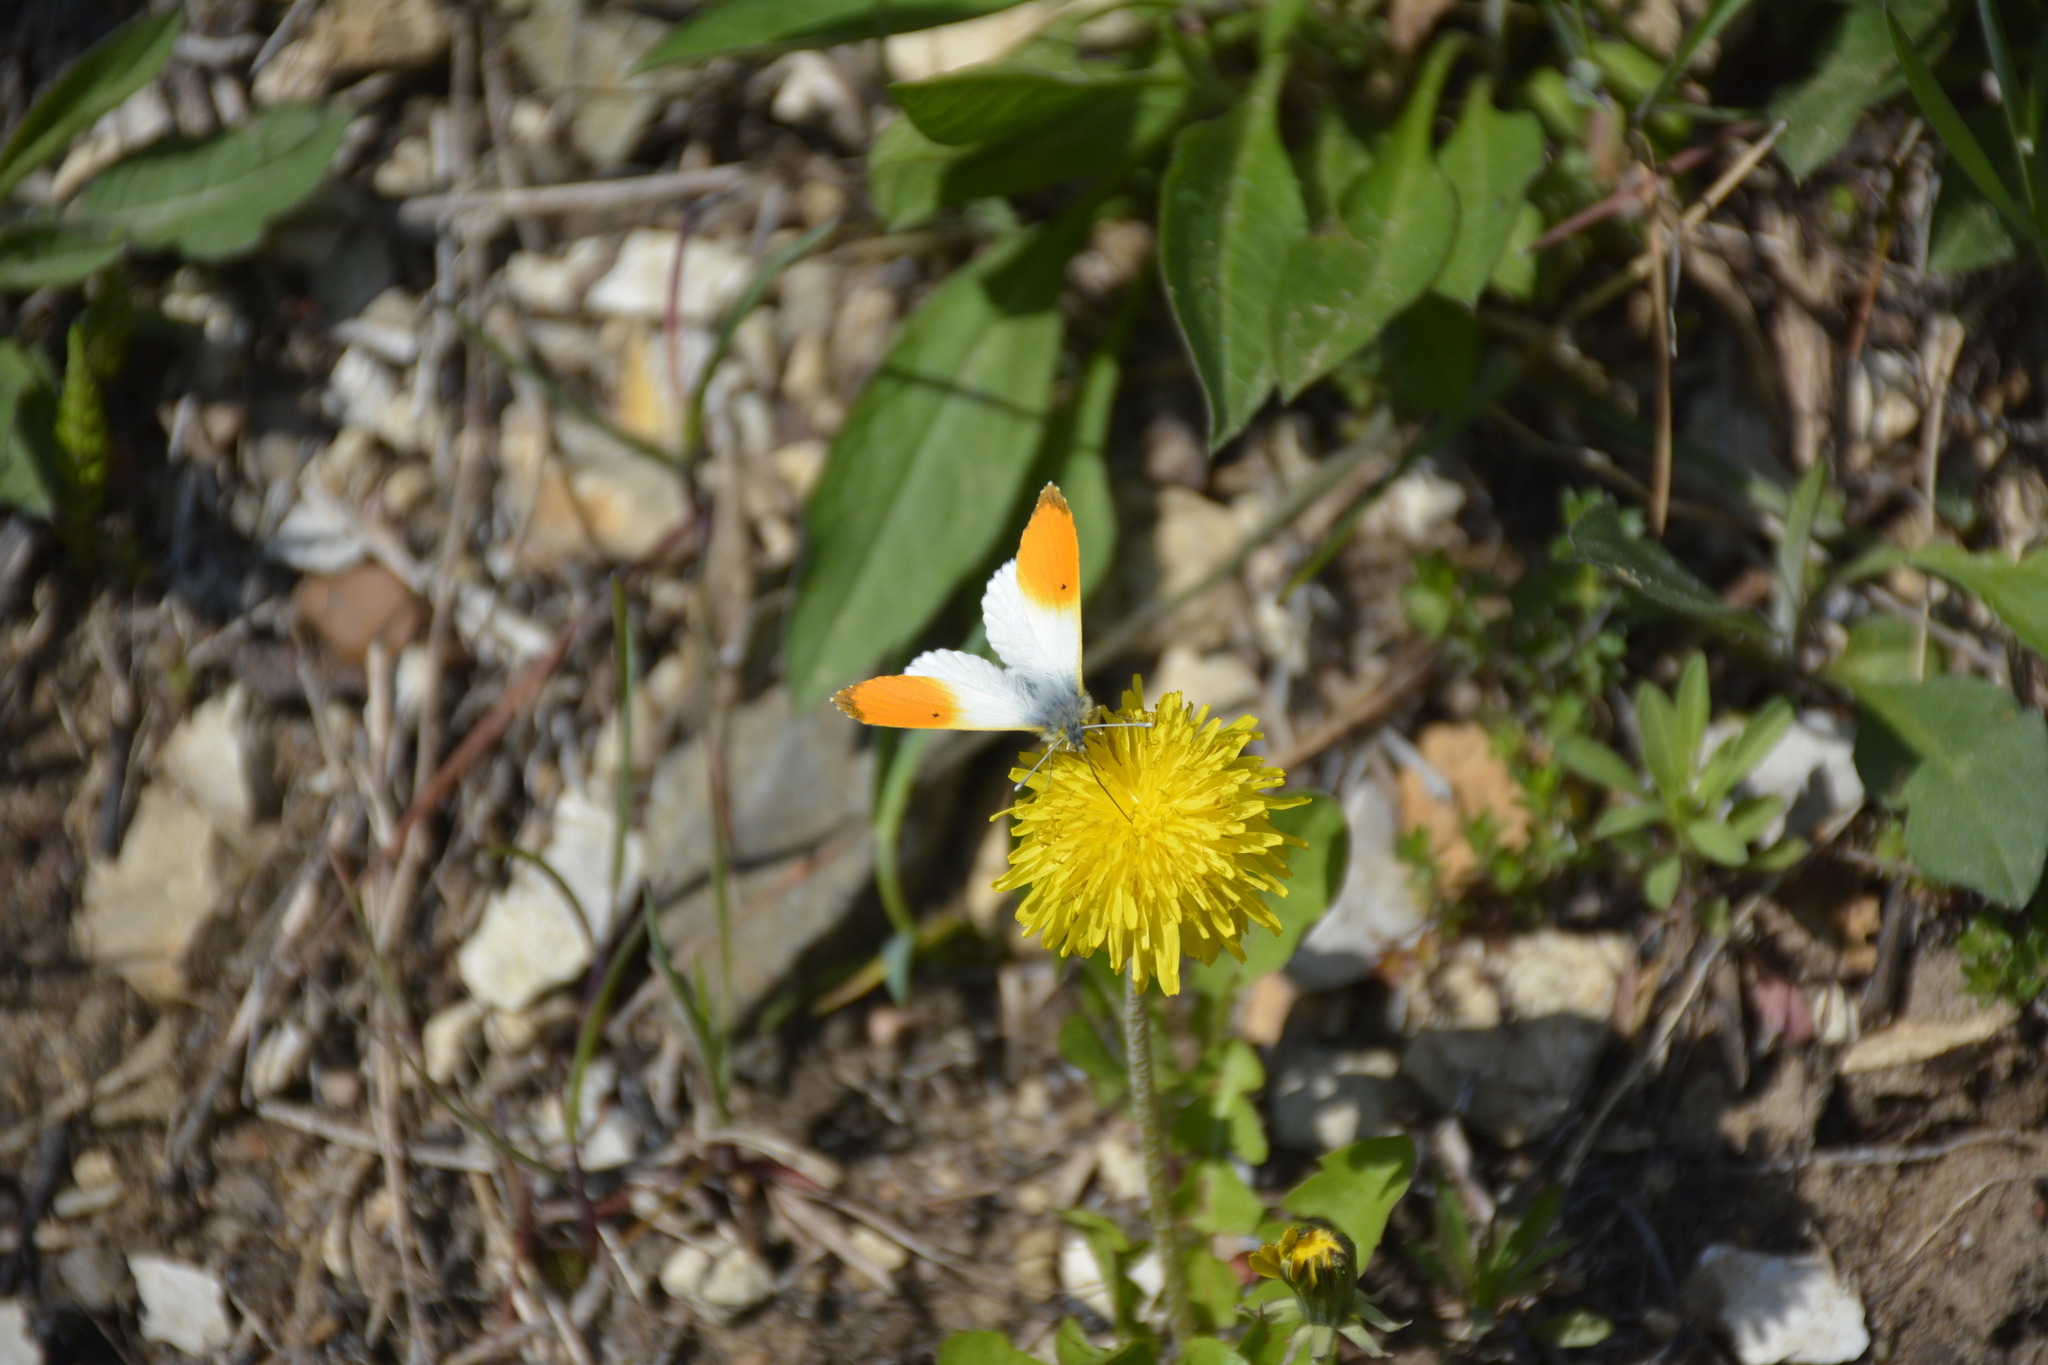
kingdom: Animalia
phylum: Arthropoda
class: Insecta
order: Lepidoptera
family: Pieridae
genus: Anthocharis
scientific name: Anthocharis cardamines
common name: Orange-tip
